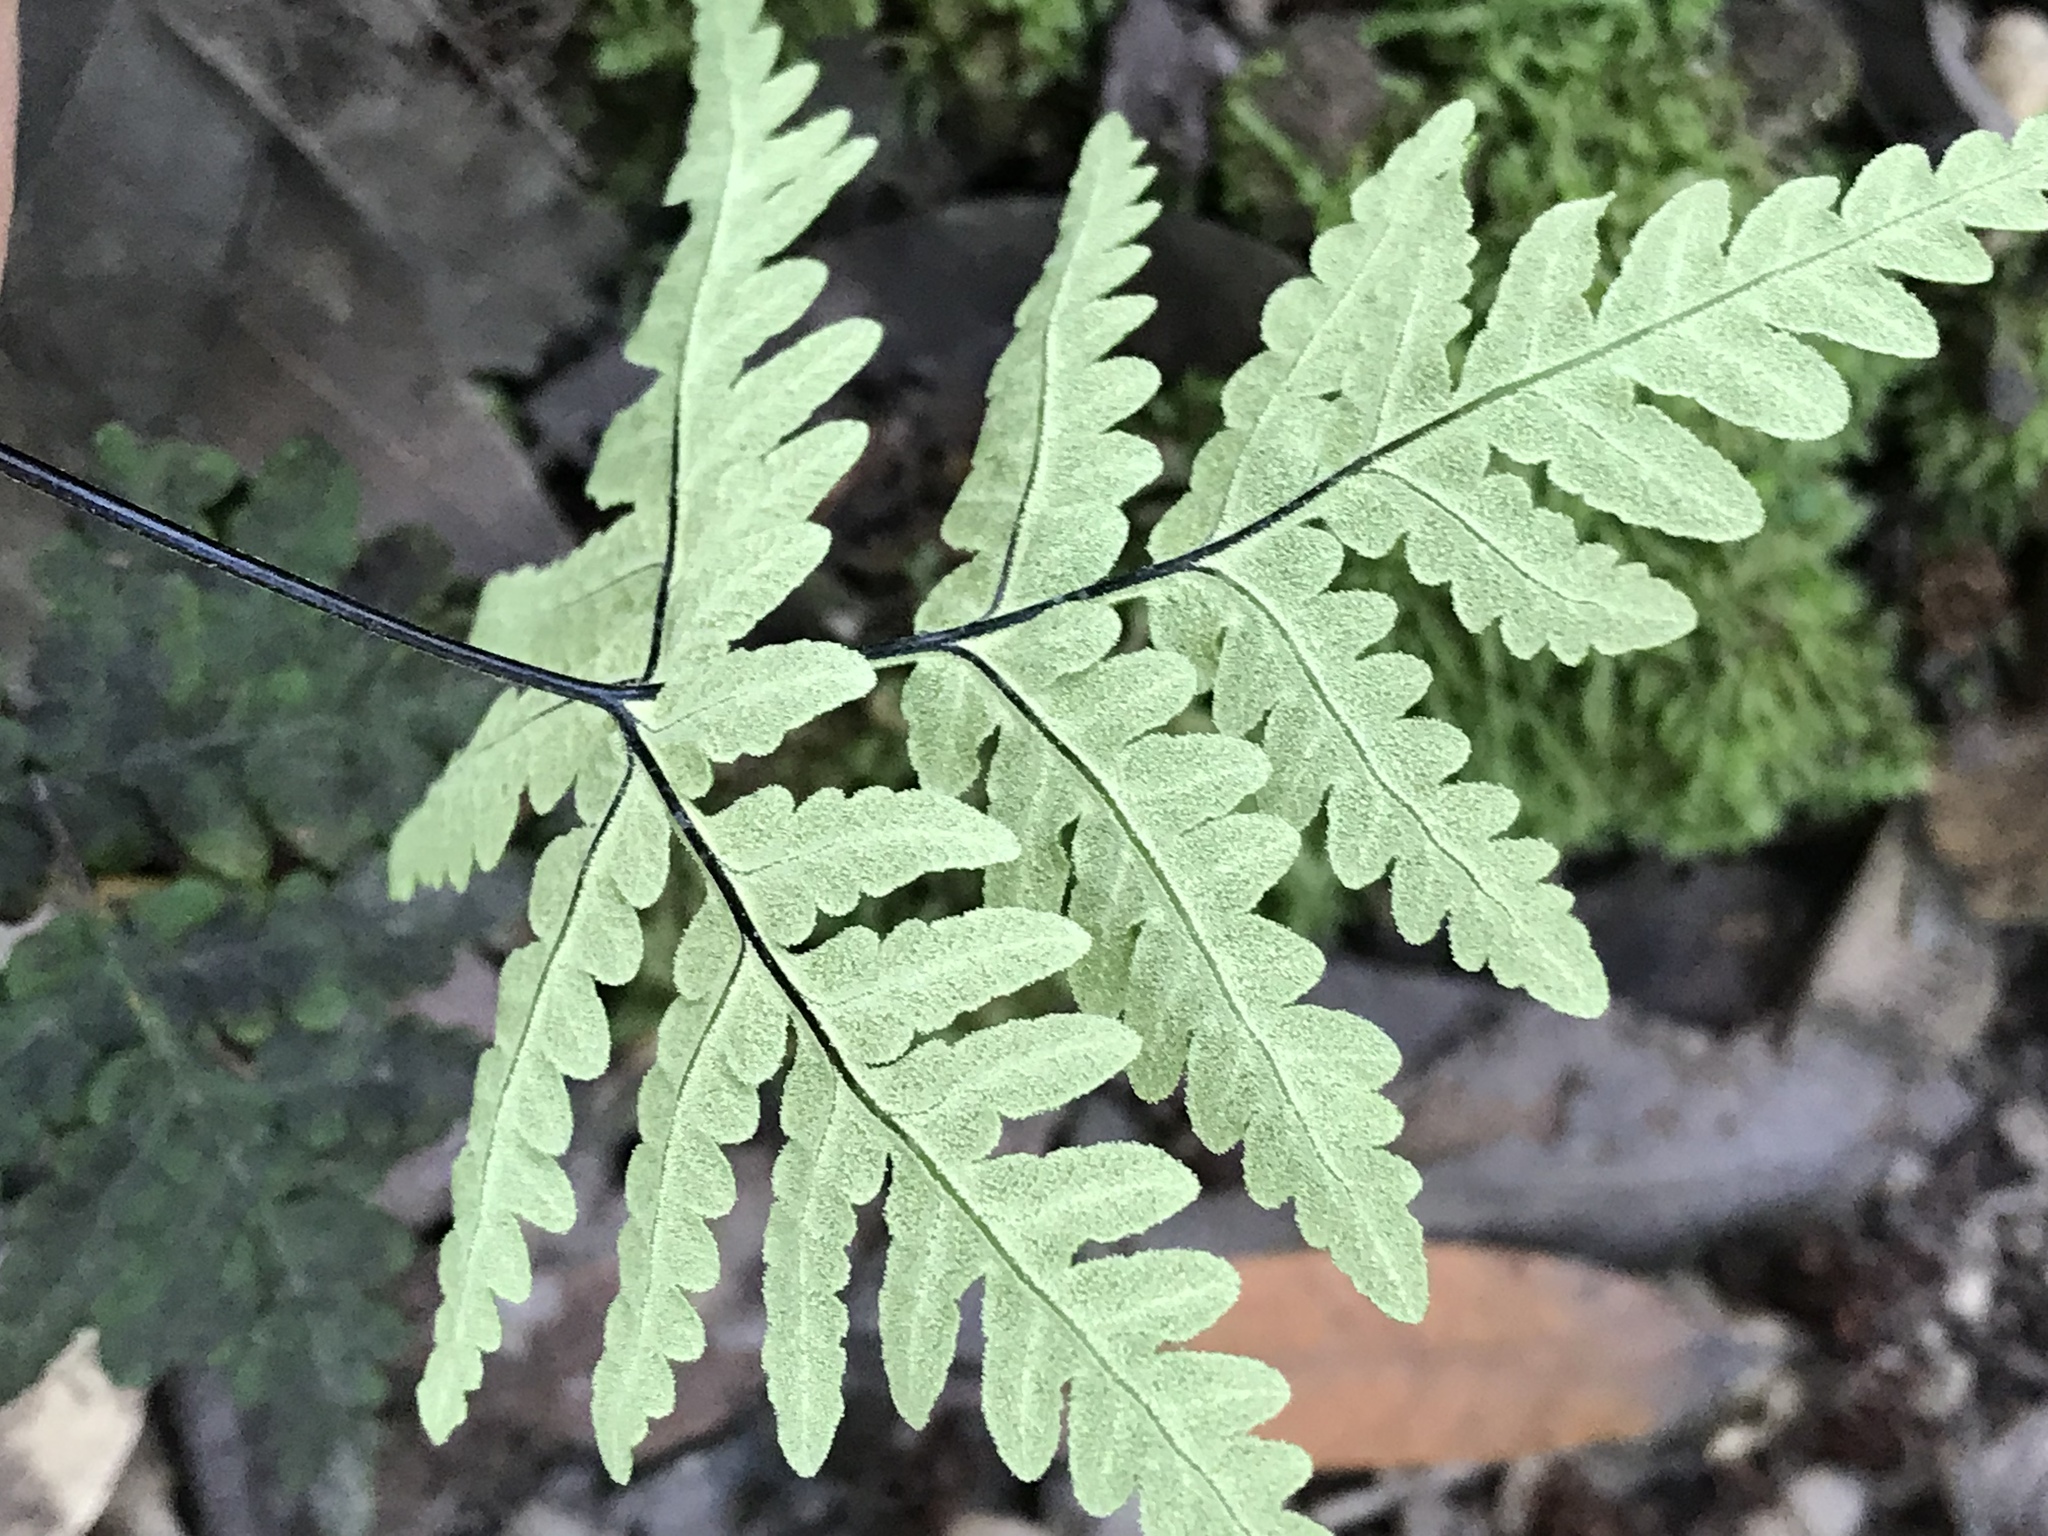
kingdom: Plantae
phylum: Tracheophyta
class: Polypodiopsida
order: Polypodiales
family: Pteridaceae
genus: Pentagramma
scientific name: Pentagramma triangularis
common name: Gold fern
